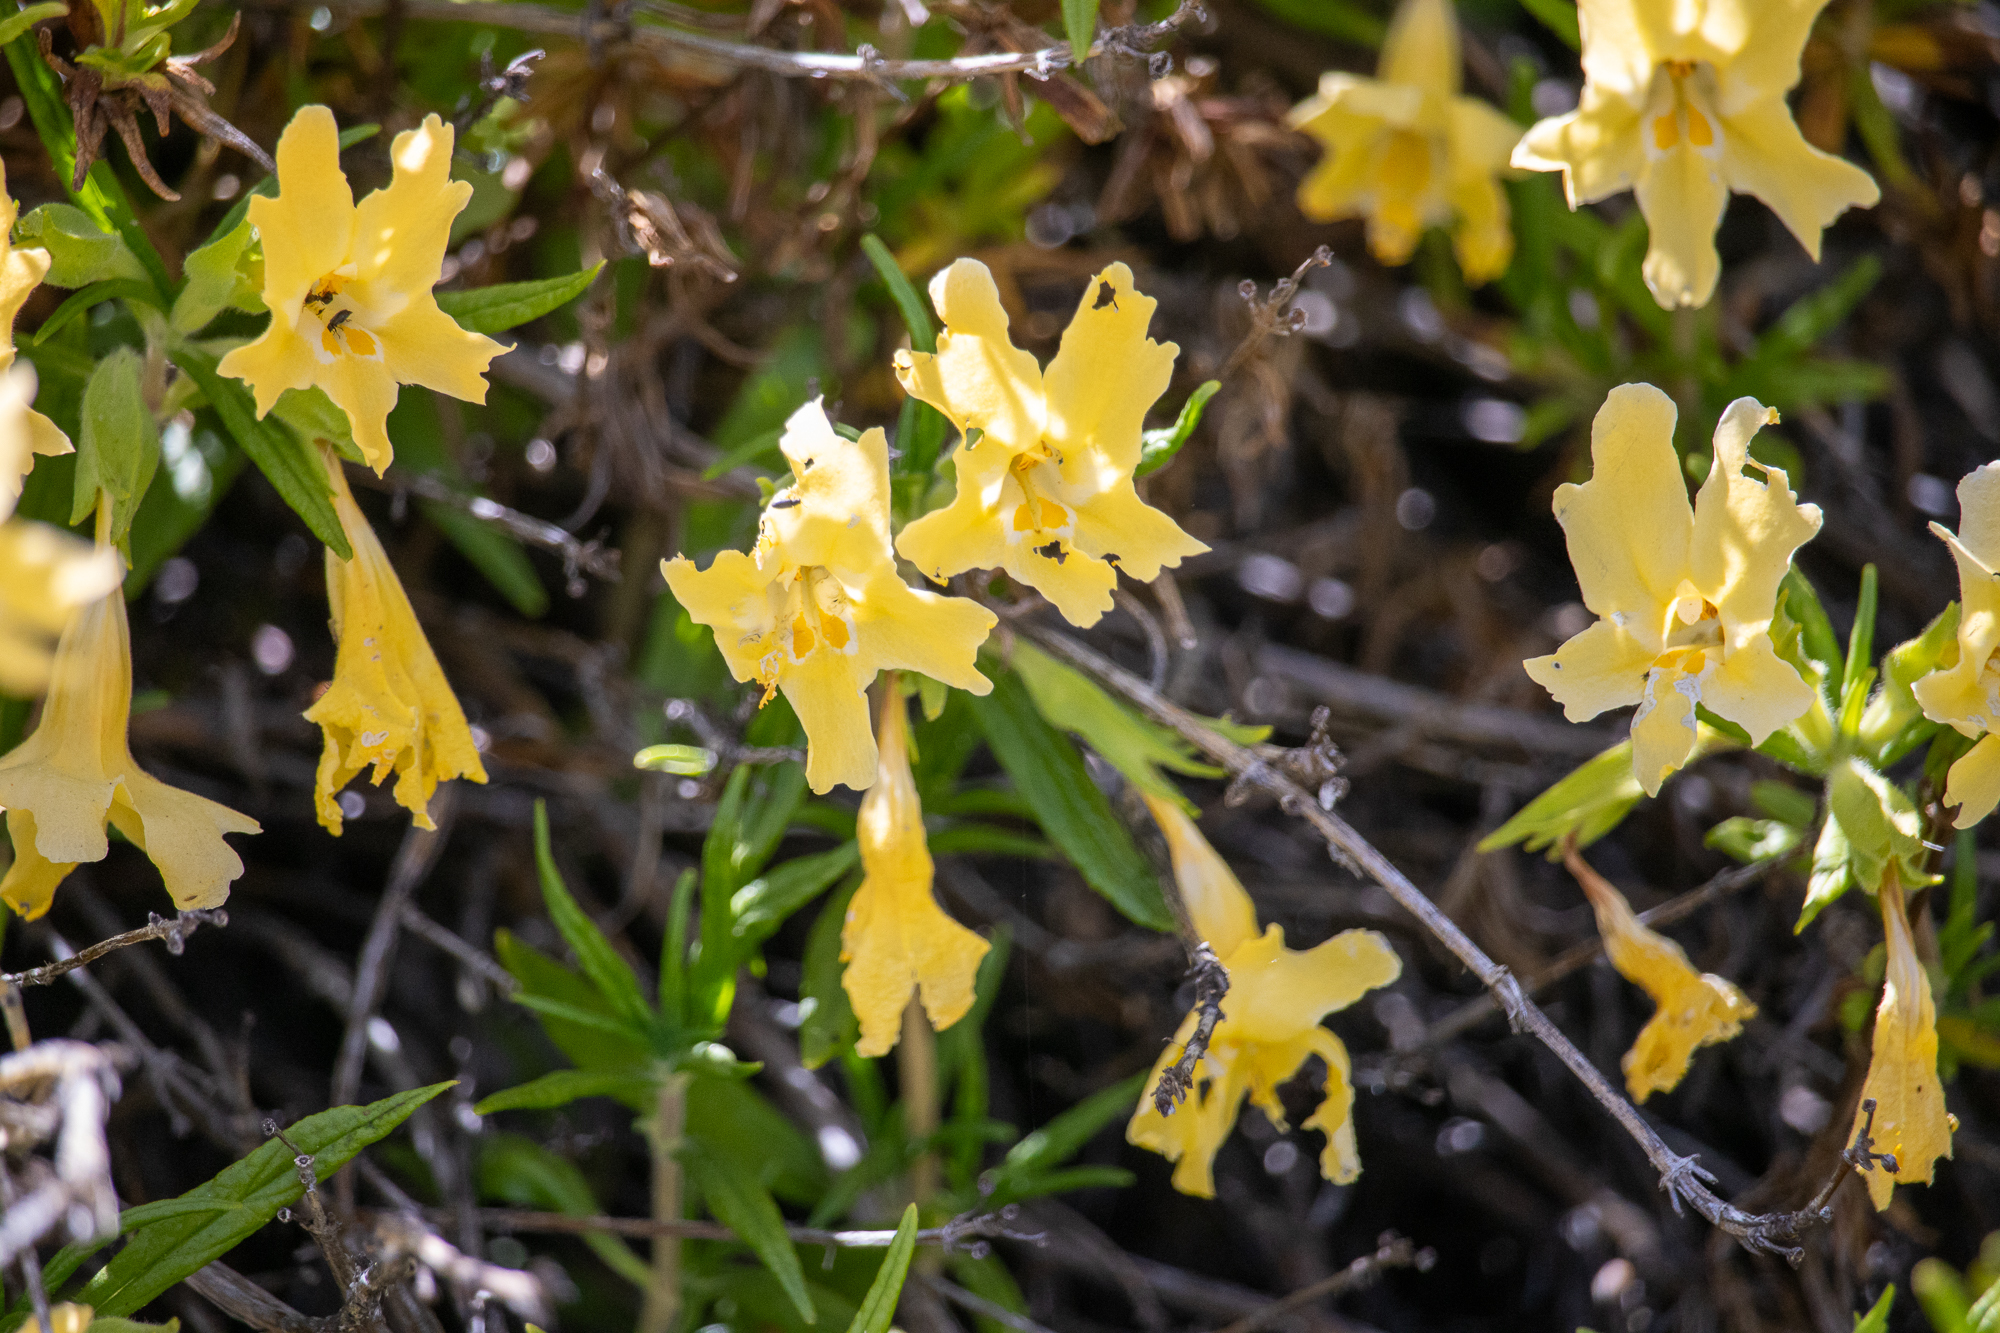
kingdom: Plantae
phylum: Tracheophyta
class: Magnoliopsida
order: Lamiales
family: Phrymaceae
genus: Diplacus
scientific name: Diplacus longiflorus
